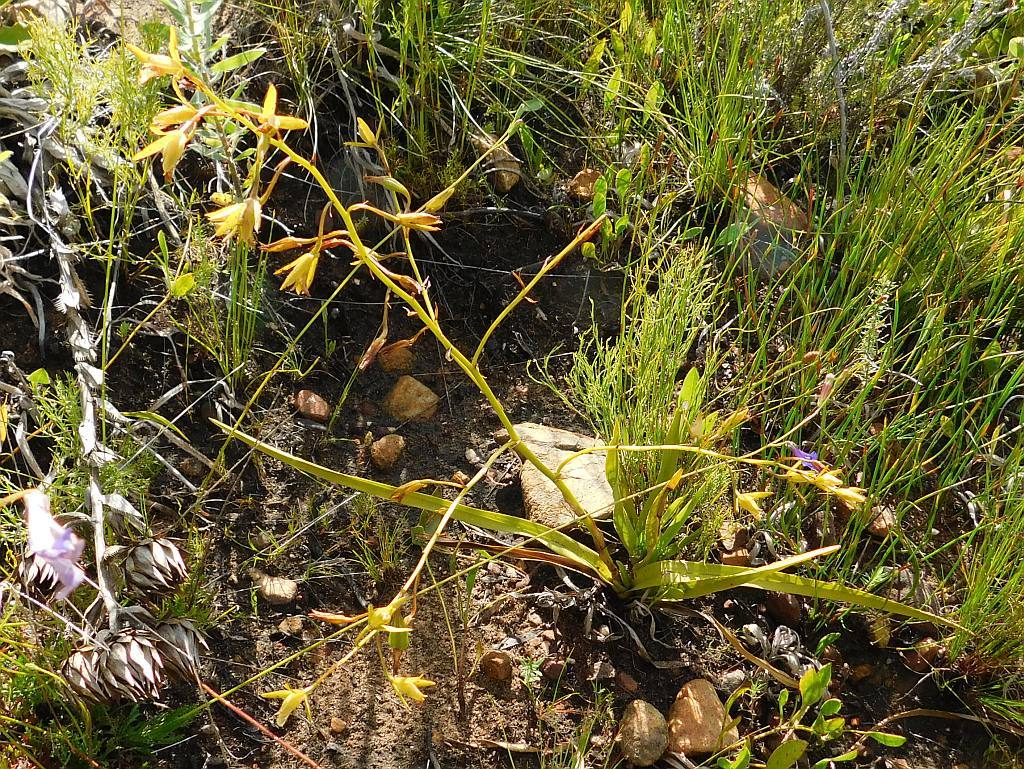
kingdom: Plantae
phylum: Tracheophyta
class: Liliopsida
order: Asparagales
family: Orchidaceae
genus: Eulophia
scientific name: Eulophia tristis
